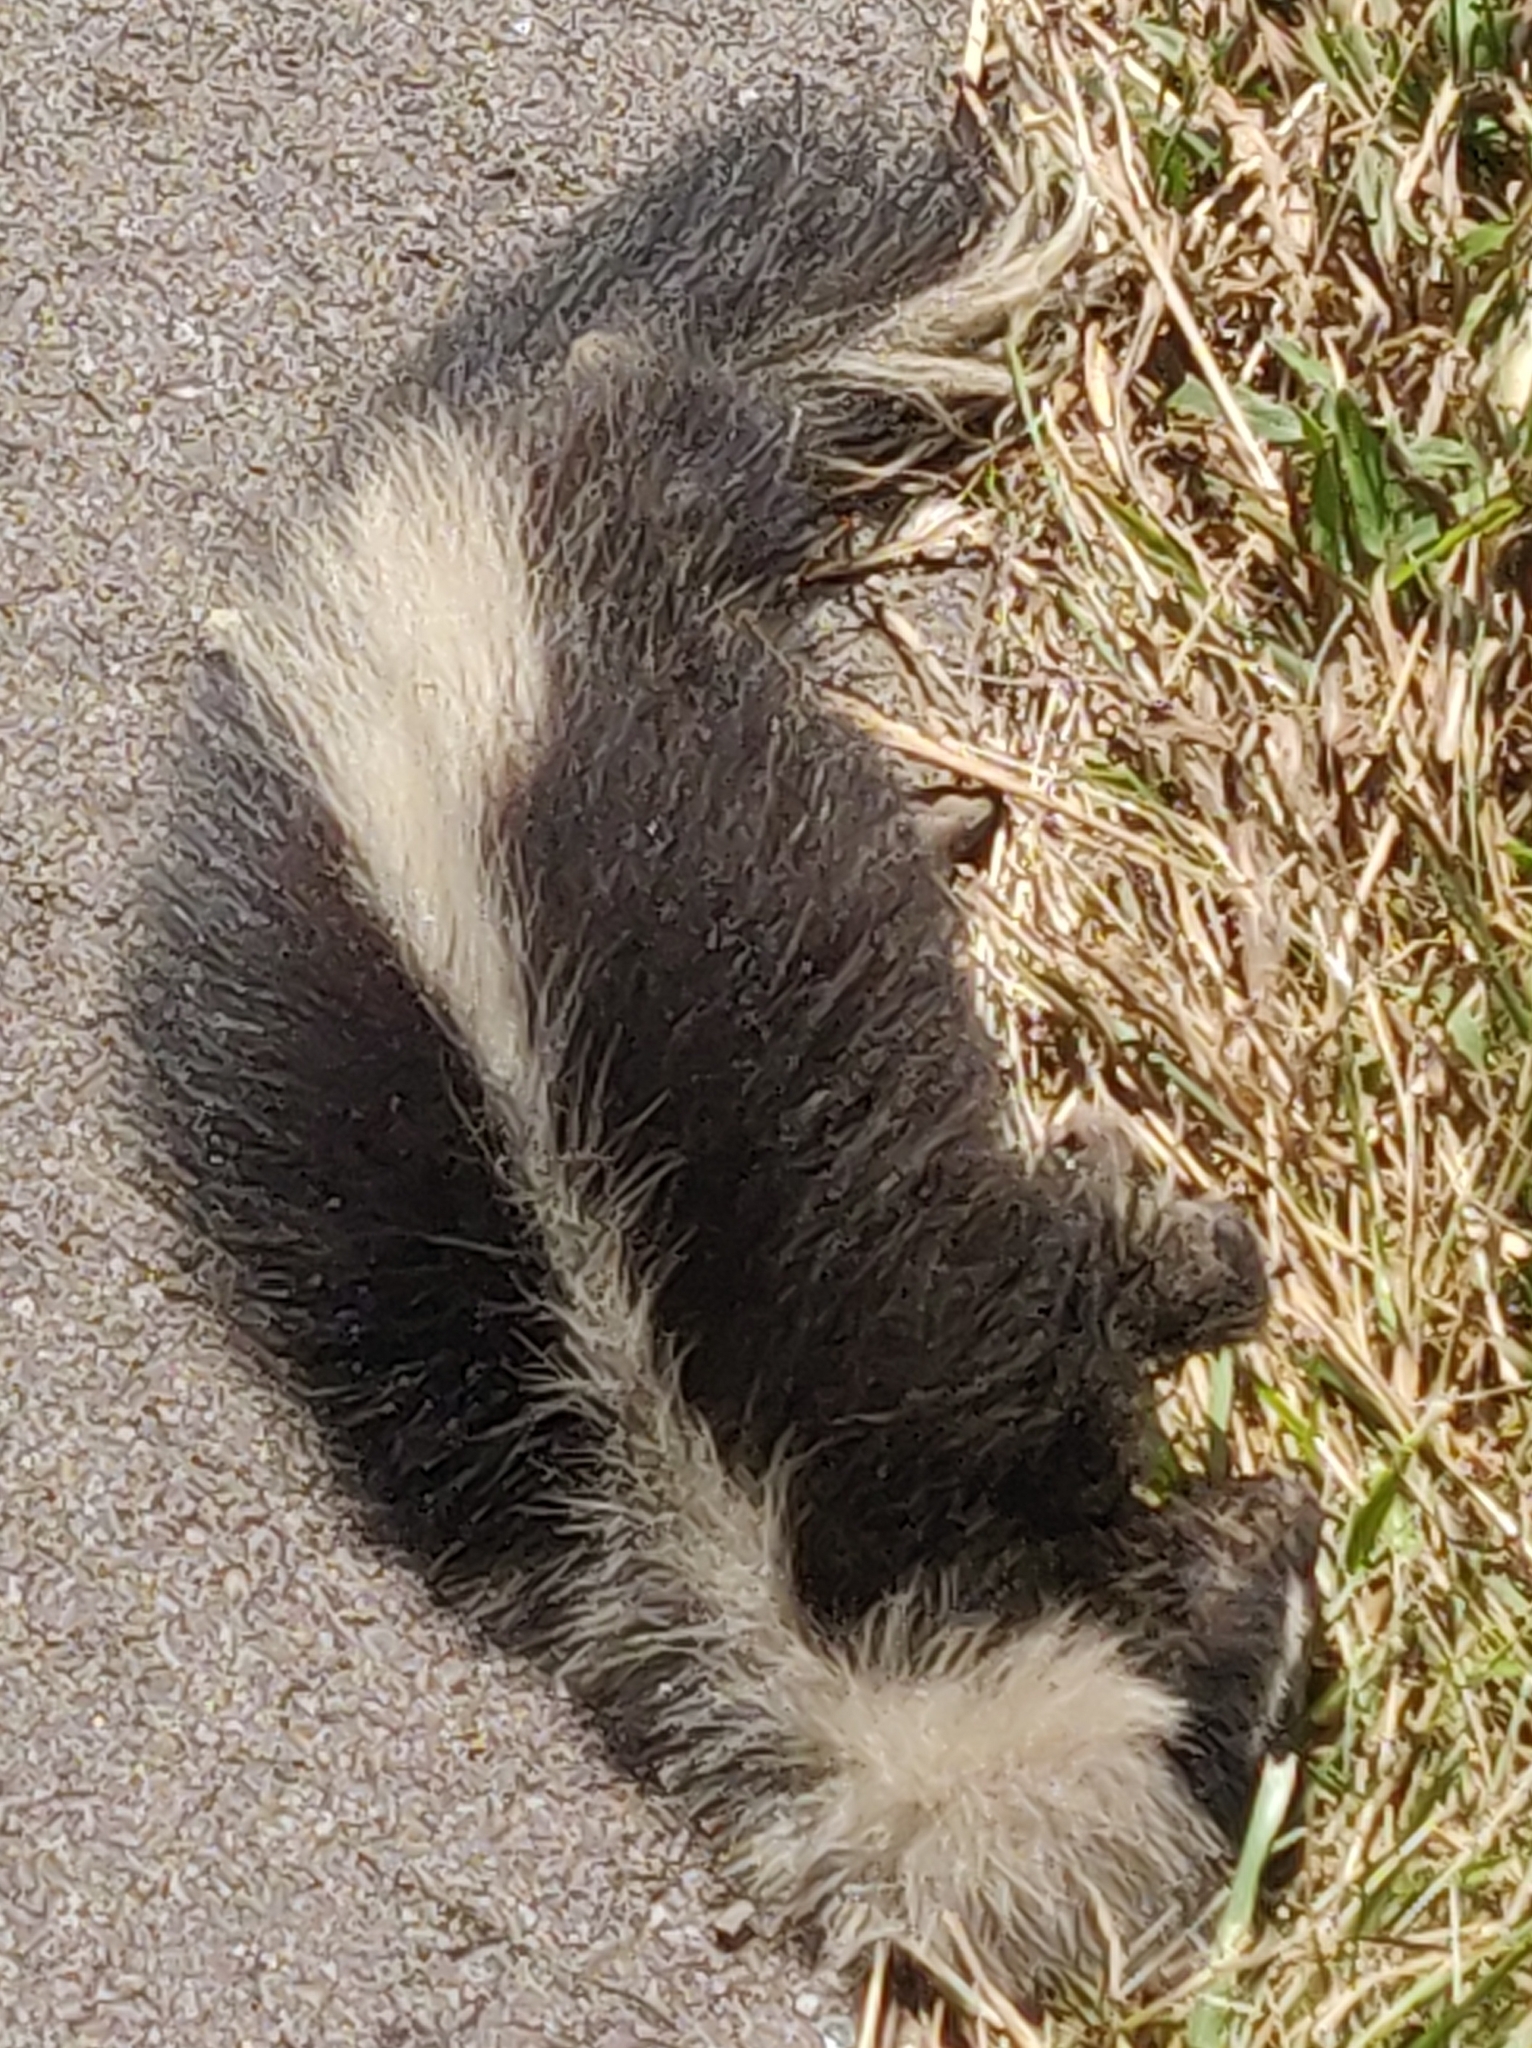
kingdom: Animalia
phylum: Chordata
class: Mammalia
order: Carnivora
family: Mephitidae
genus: Mephitis
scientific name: Mephitis mephitis
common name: Striped skunk
